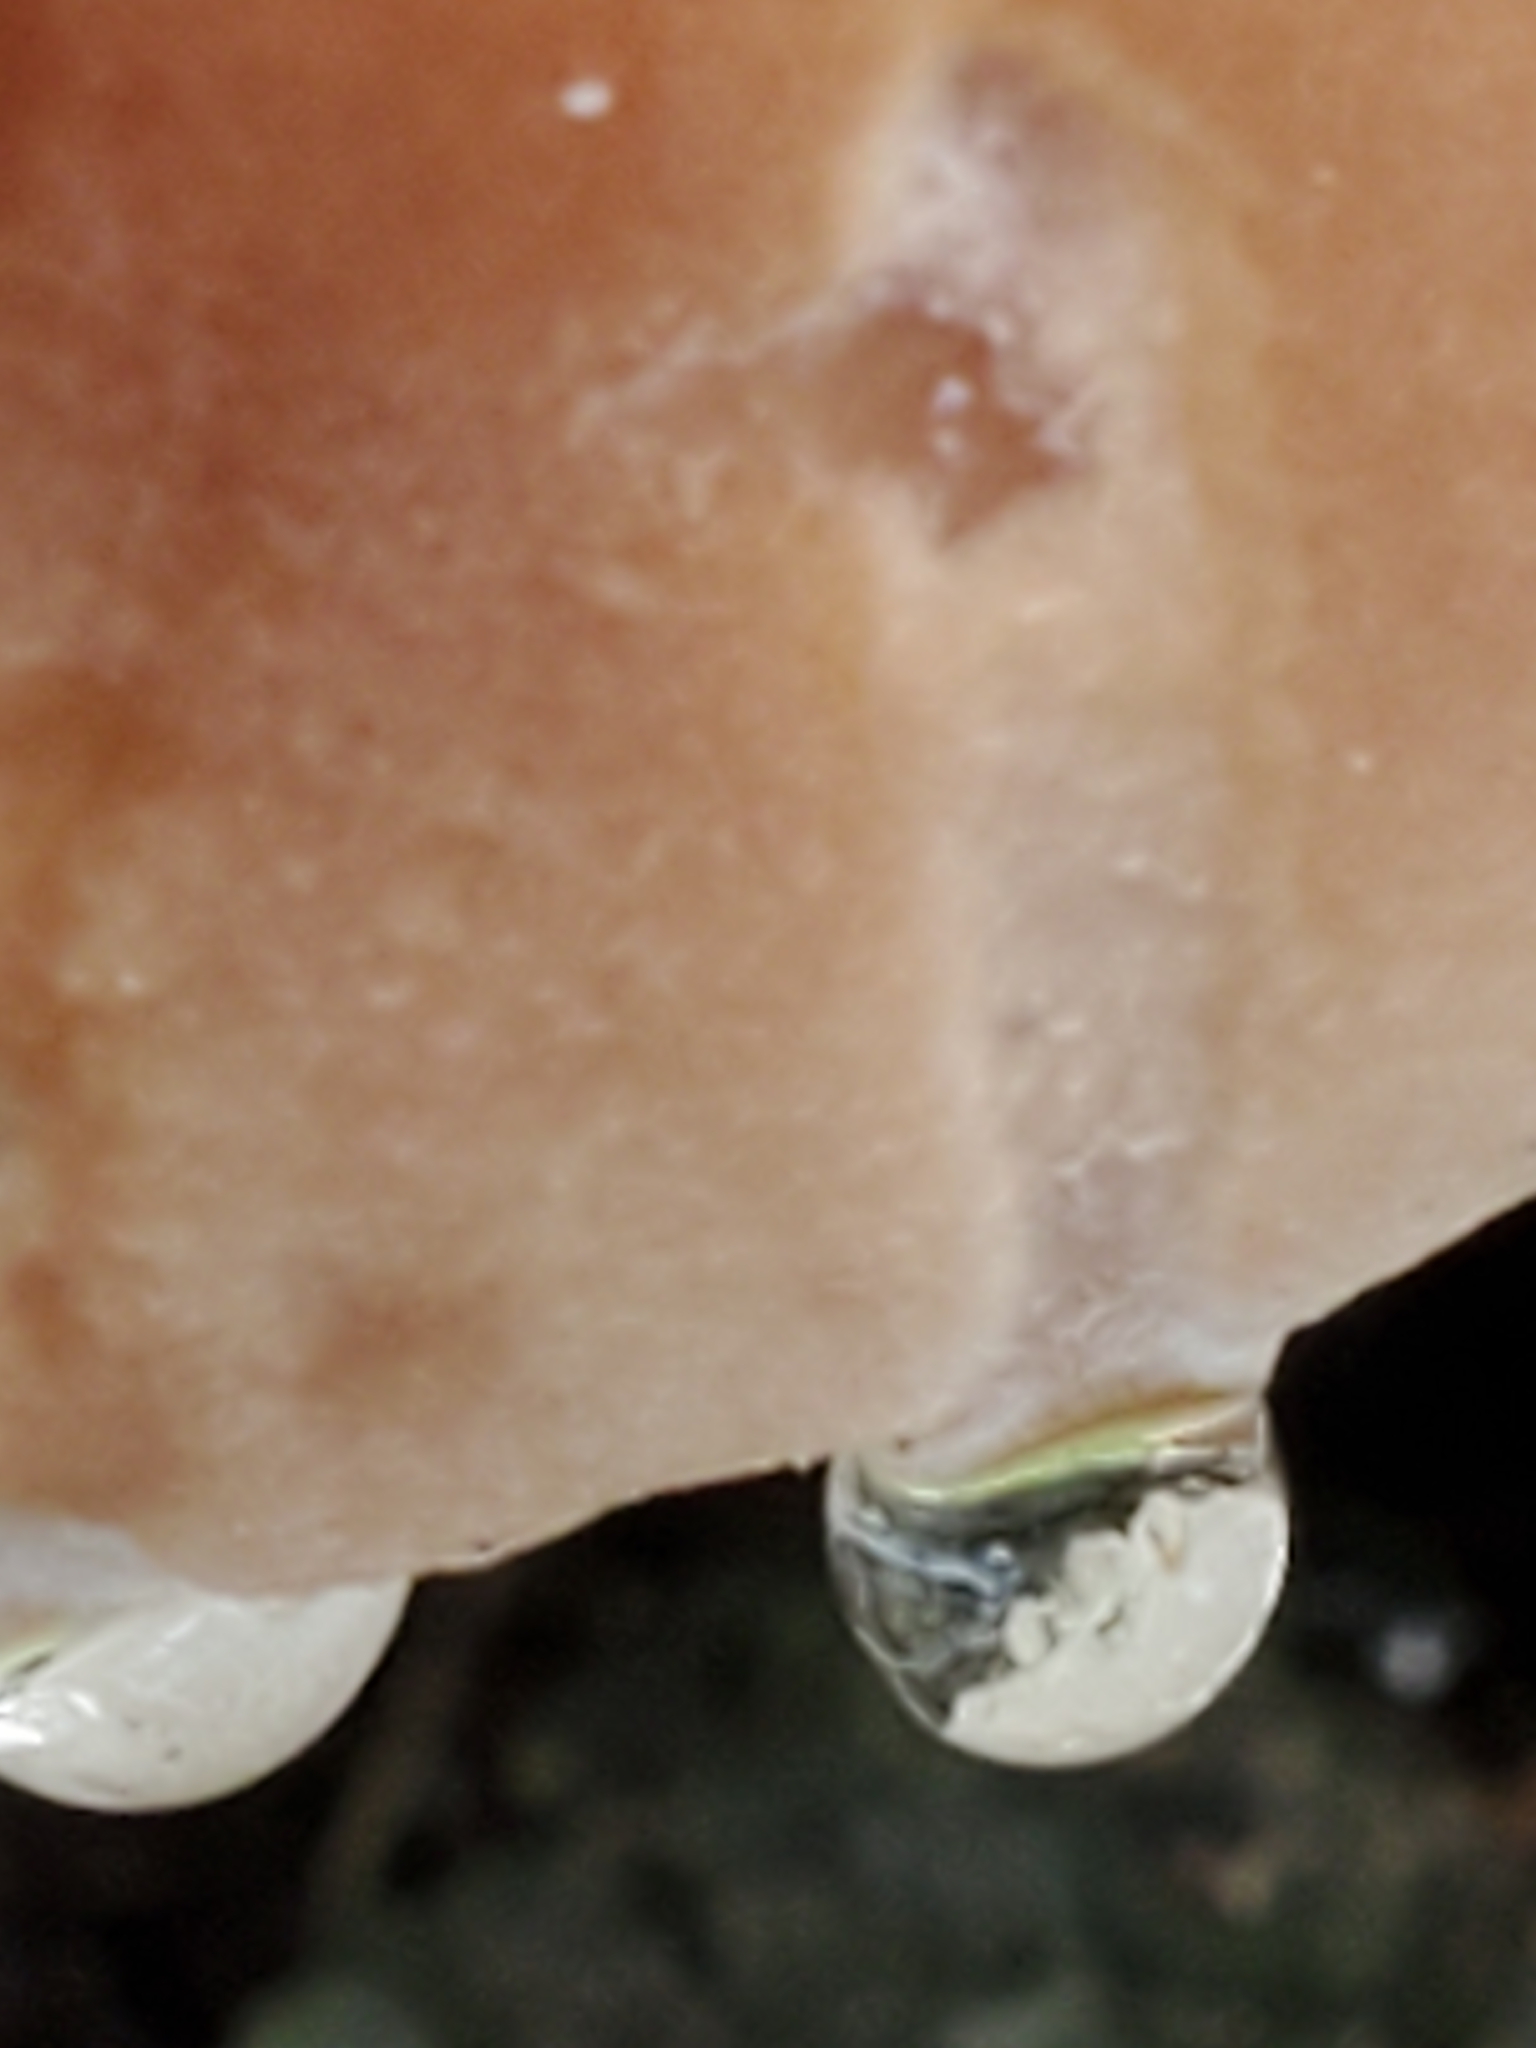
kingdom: Fungi
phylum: Basidiomycota
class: Agaricomycetes
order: Polyporales
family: Fomitopsidaceae
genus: Niveoporofomes
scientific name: Niveoporofomes spraguei
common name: Green cheese polypore
